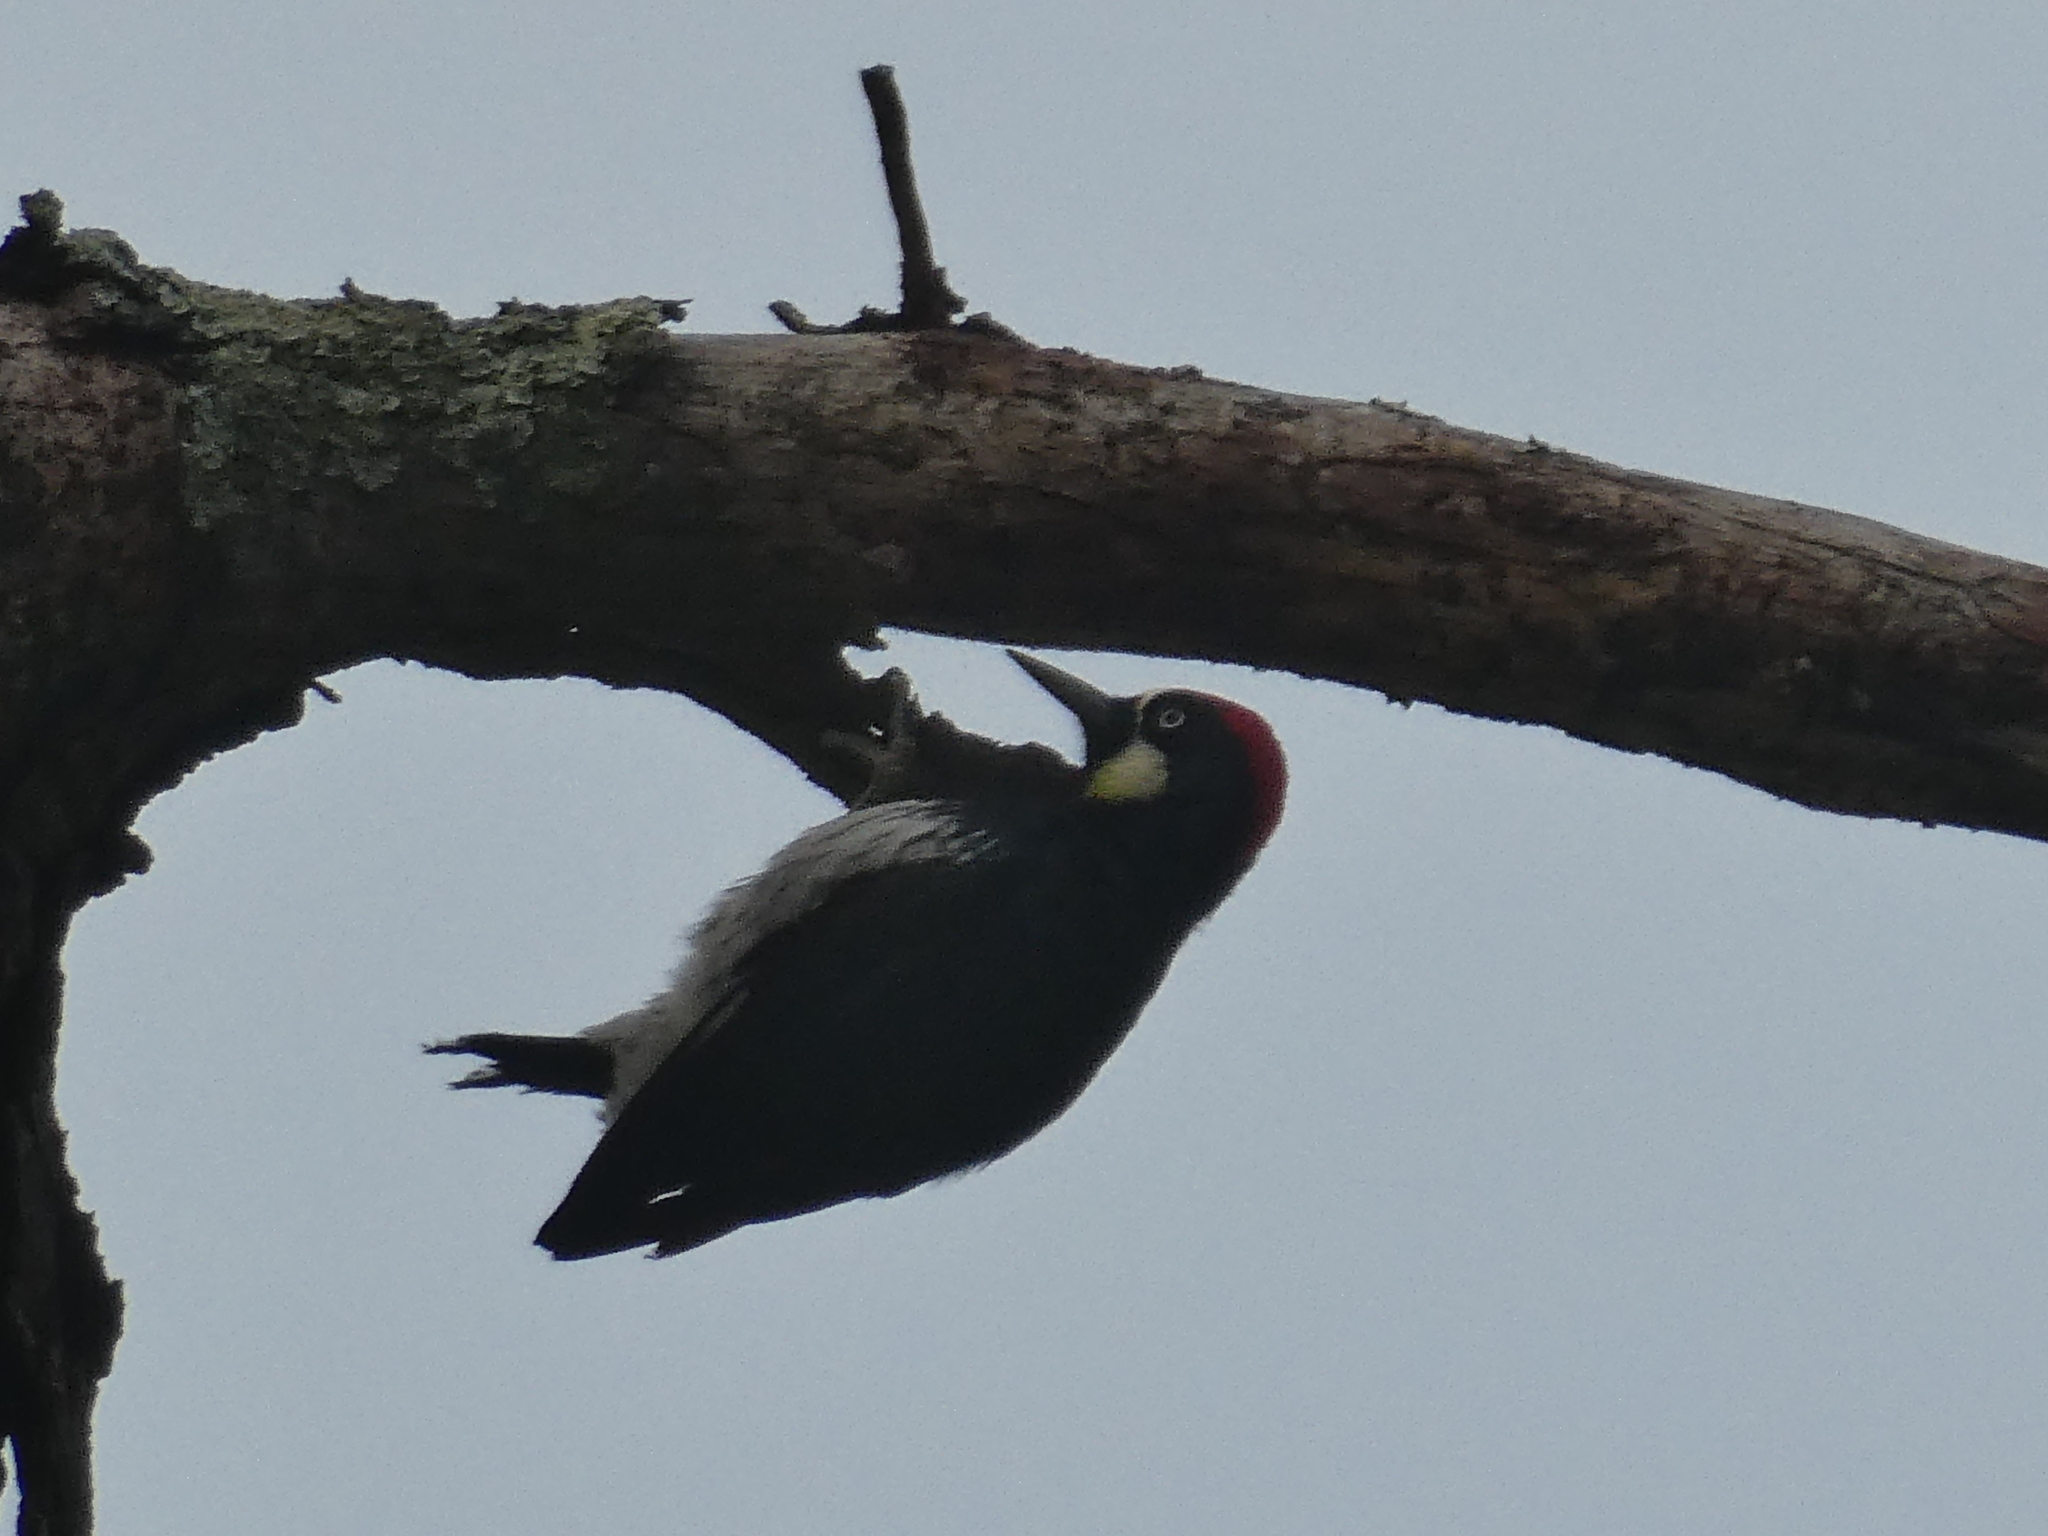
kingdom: Animalia
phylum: Chordata
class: Aves
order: Piciformes
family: Picidae
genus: Melanerpes
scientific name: Melanerpes formicivorus
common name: Acorn woodpecker
